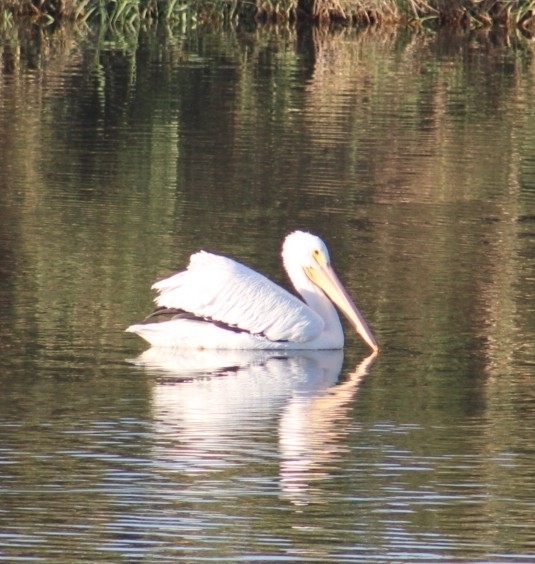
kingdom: Animalia
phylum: Chordata
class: Aves
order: Pelecaniformes
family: Pelecanidae
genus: Pelecanus
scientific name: Pelecanus erythrorhynchos
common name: American white pelican
